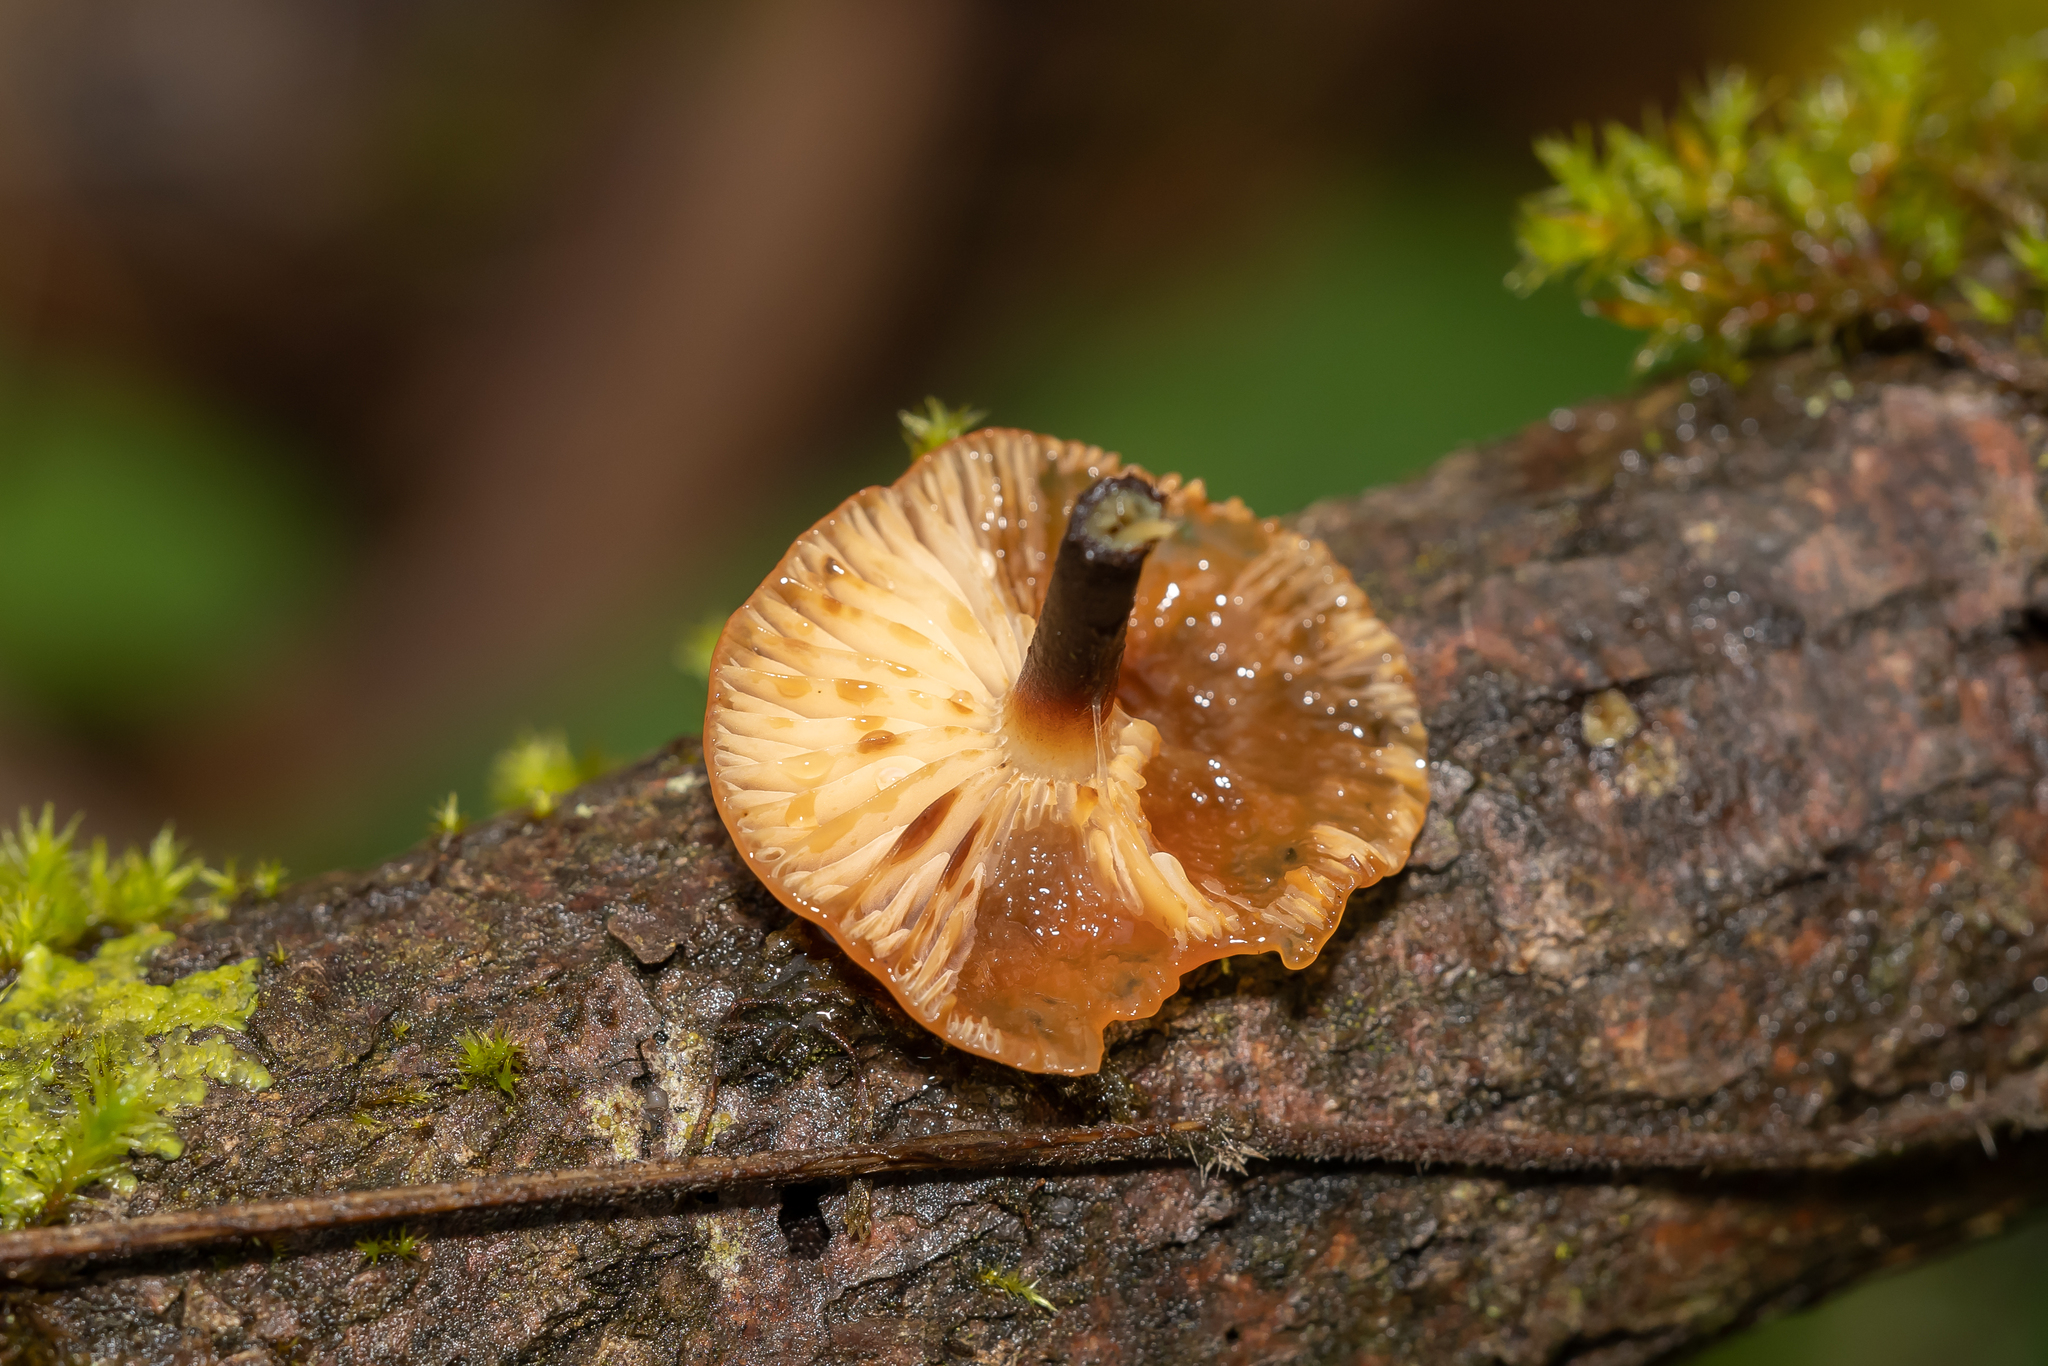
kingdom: Fungi
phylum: Basidiomycota
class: Agaricomycetes
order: Agaricales
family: Physalacriaceae
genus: Flammulina
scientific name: Flammulina
